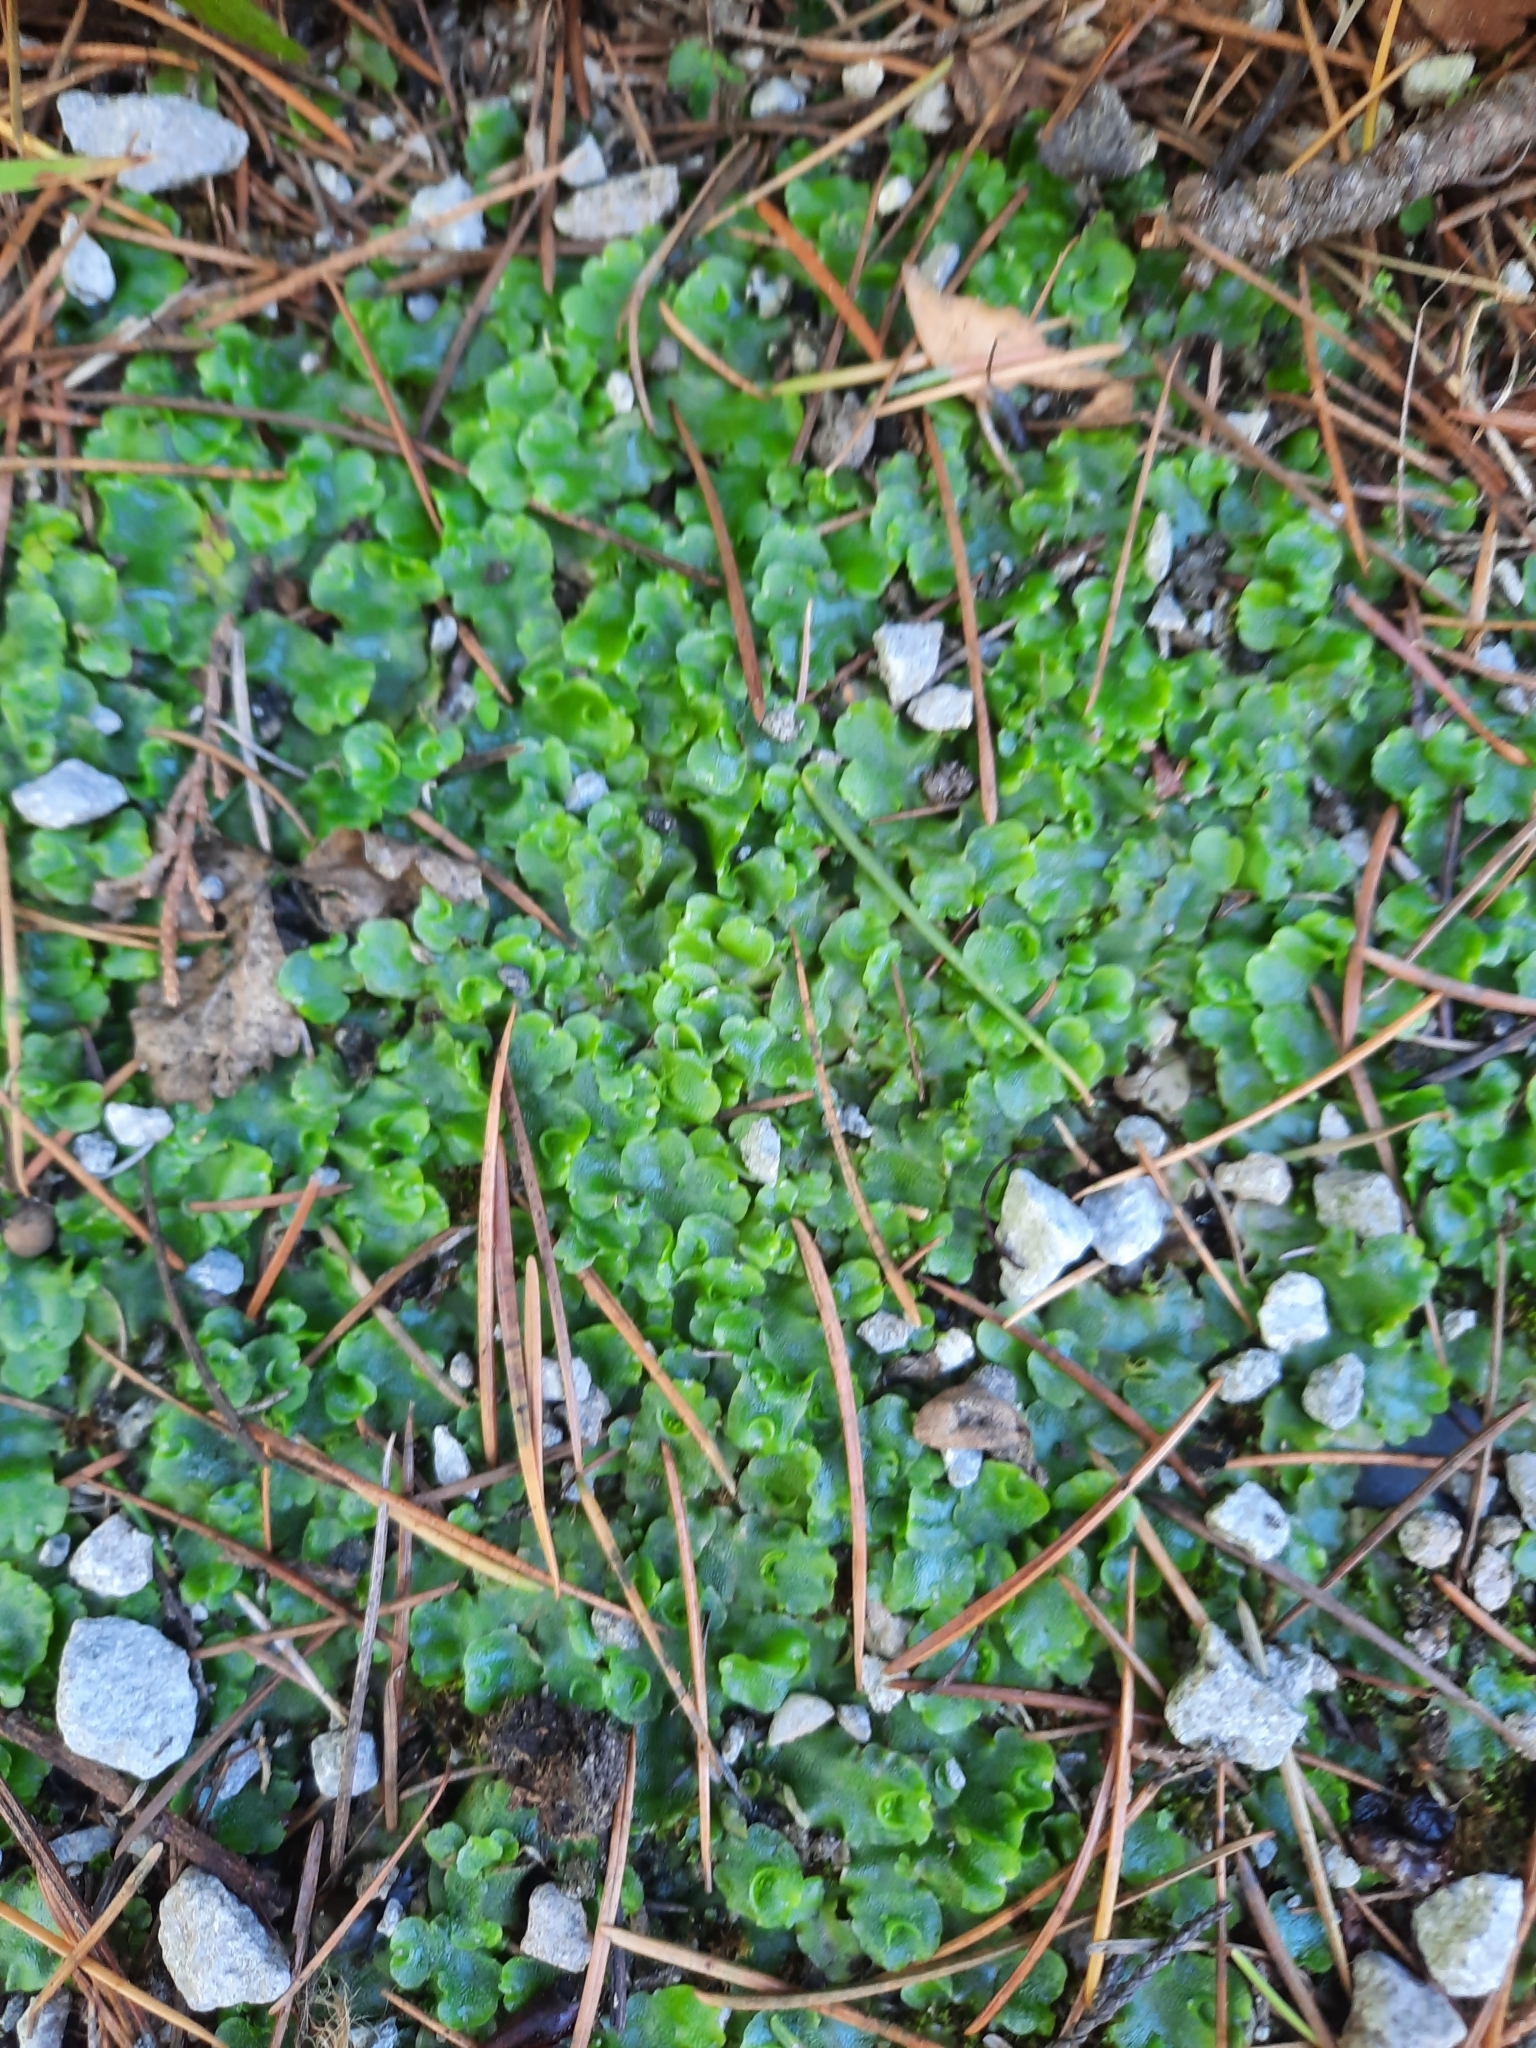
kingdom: Plantae
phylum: Marchantiophyta
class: Marchantiopsida
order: Lunulariales
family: Lunulariaceae
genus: Lunularia
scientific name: Lunularia cruciata
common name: Crescent-cup liverwort
